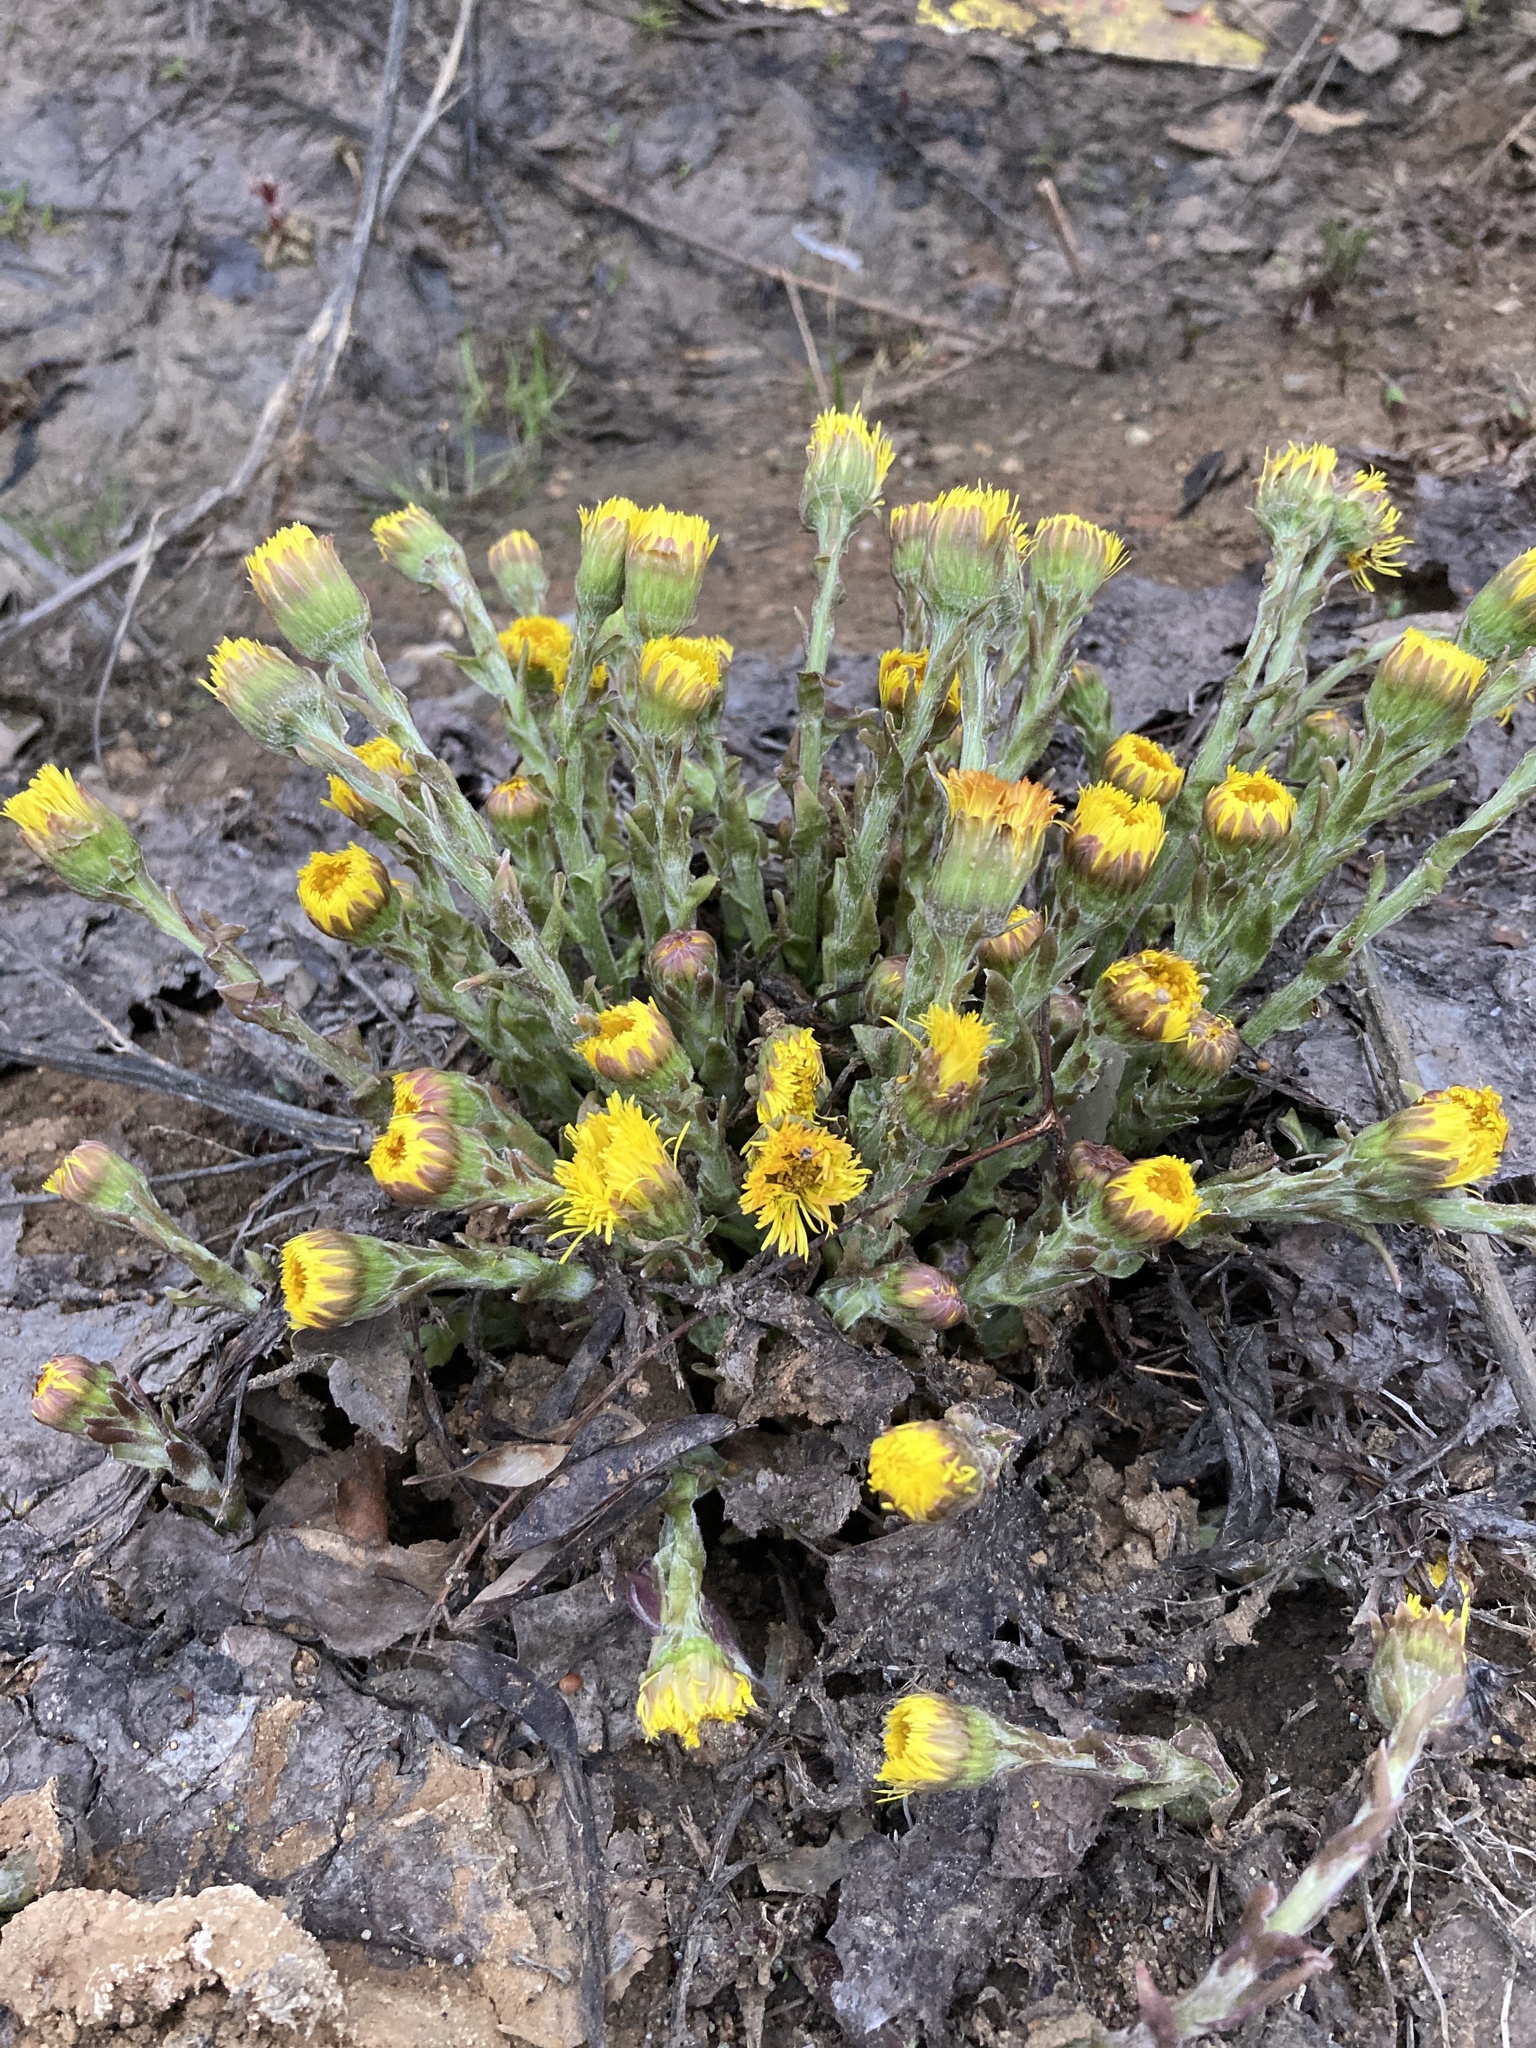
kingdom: Plantae
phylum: Tracheophyta
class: Magnoliopsida
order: Asterales
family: Asteraceae
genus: Tussilago
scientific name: Tussilago farfara
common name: Coltsfoot
